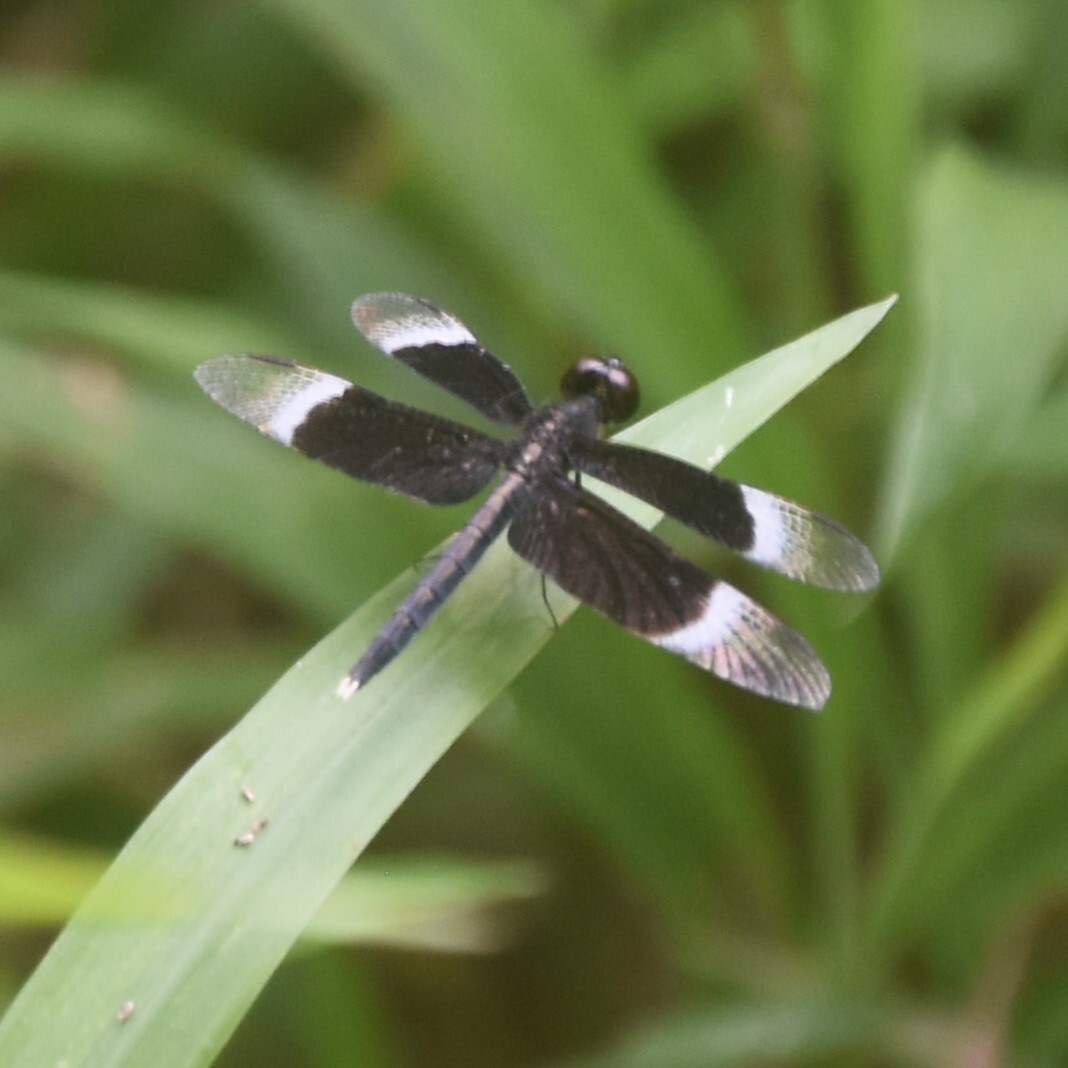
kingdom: Animalia
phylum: Arthropoda
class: Insecta
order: Odonata
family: Libellulidae
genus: Neurothemis
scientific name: Neurothemis tullia
